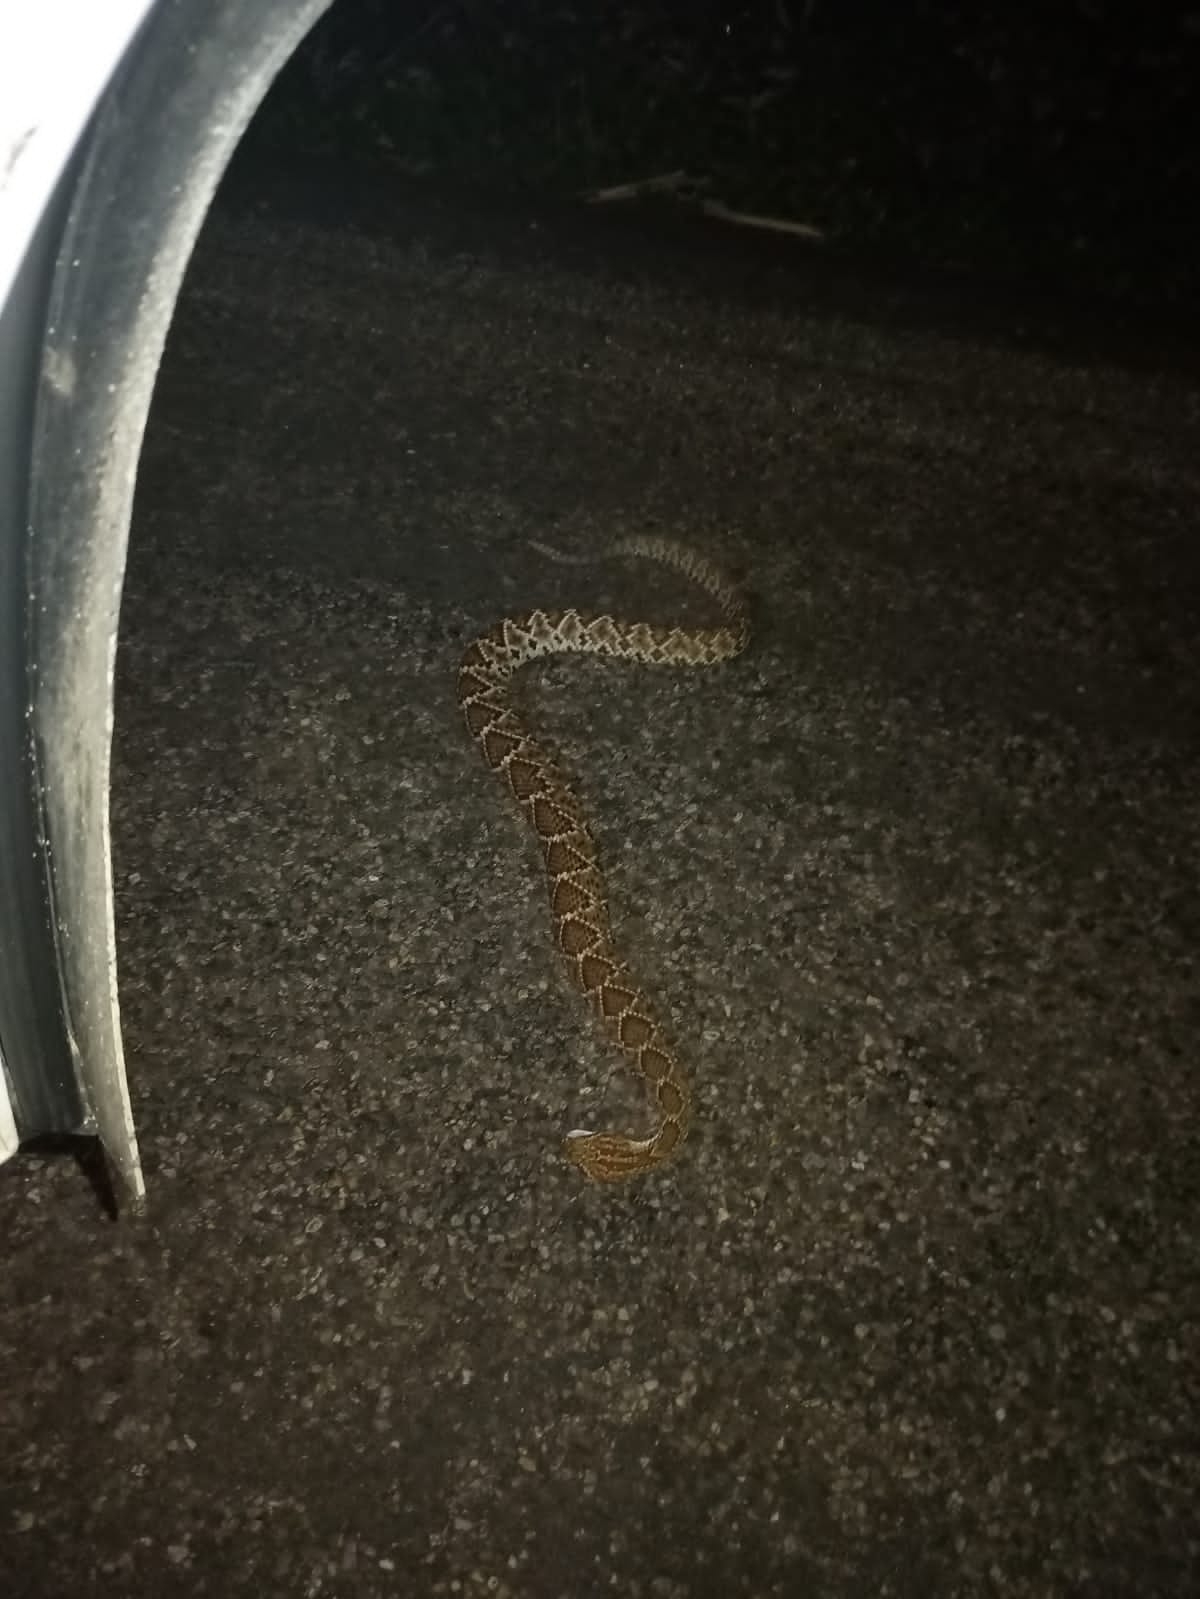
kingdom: Animalia
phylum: Chordata
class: Squamata
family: Viperidae
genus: Crotalus
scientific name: Crotalus basiliscus
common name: Basilisk rattlesnake
